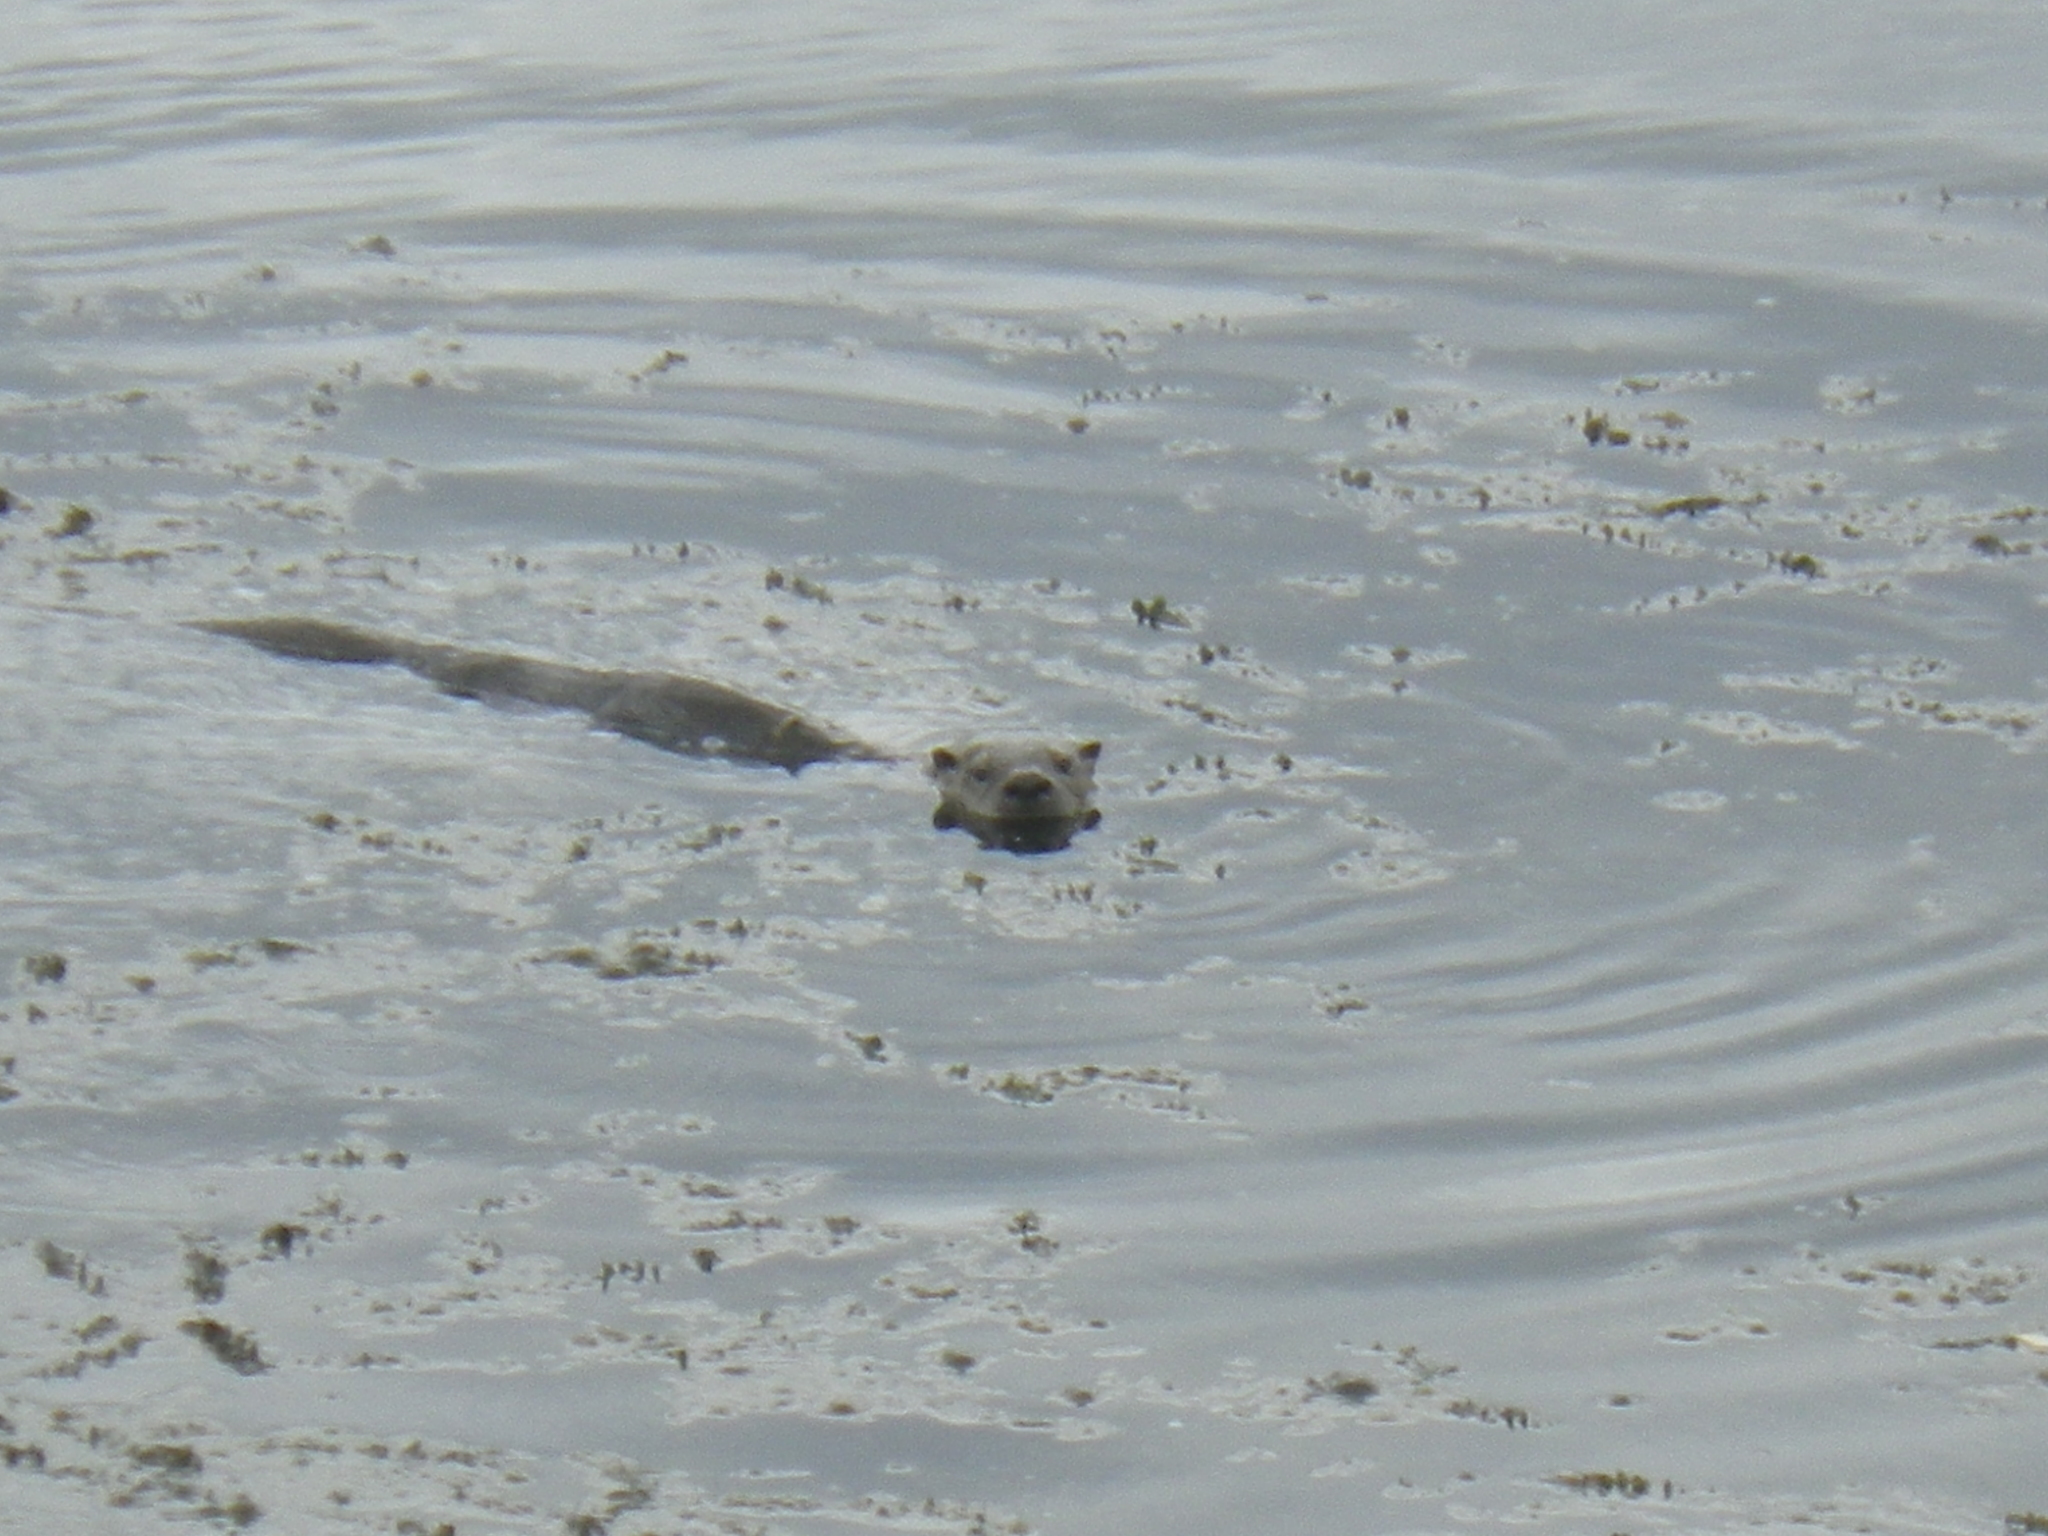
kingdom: Animalia
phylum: Chordata
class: Mammalia
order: Carnivora
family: Mustelidae
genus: Lontra
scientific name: Lontra canadensis
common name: North american river otter
